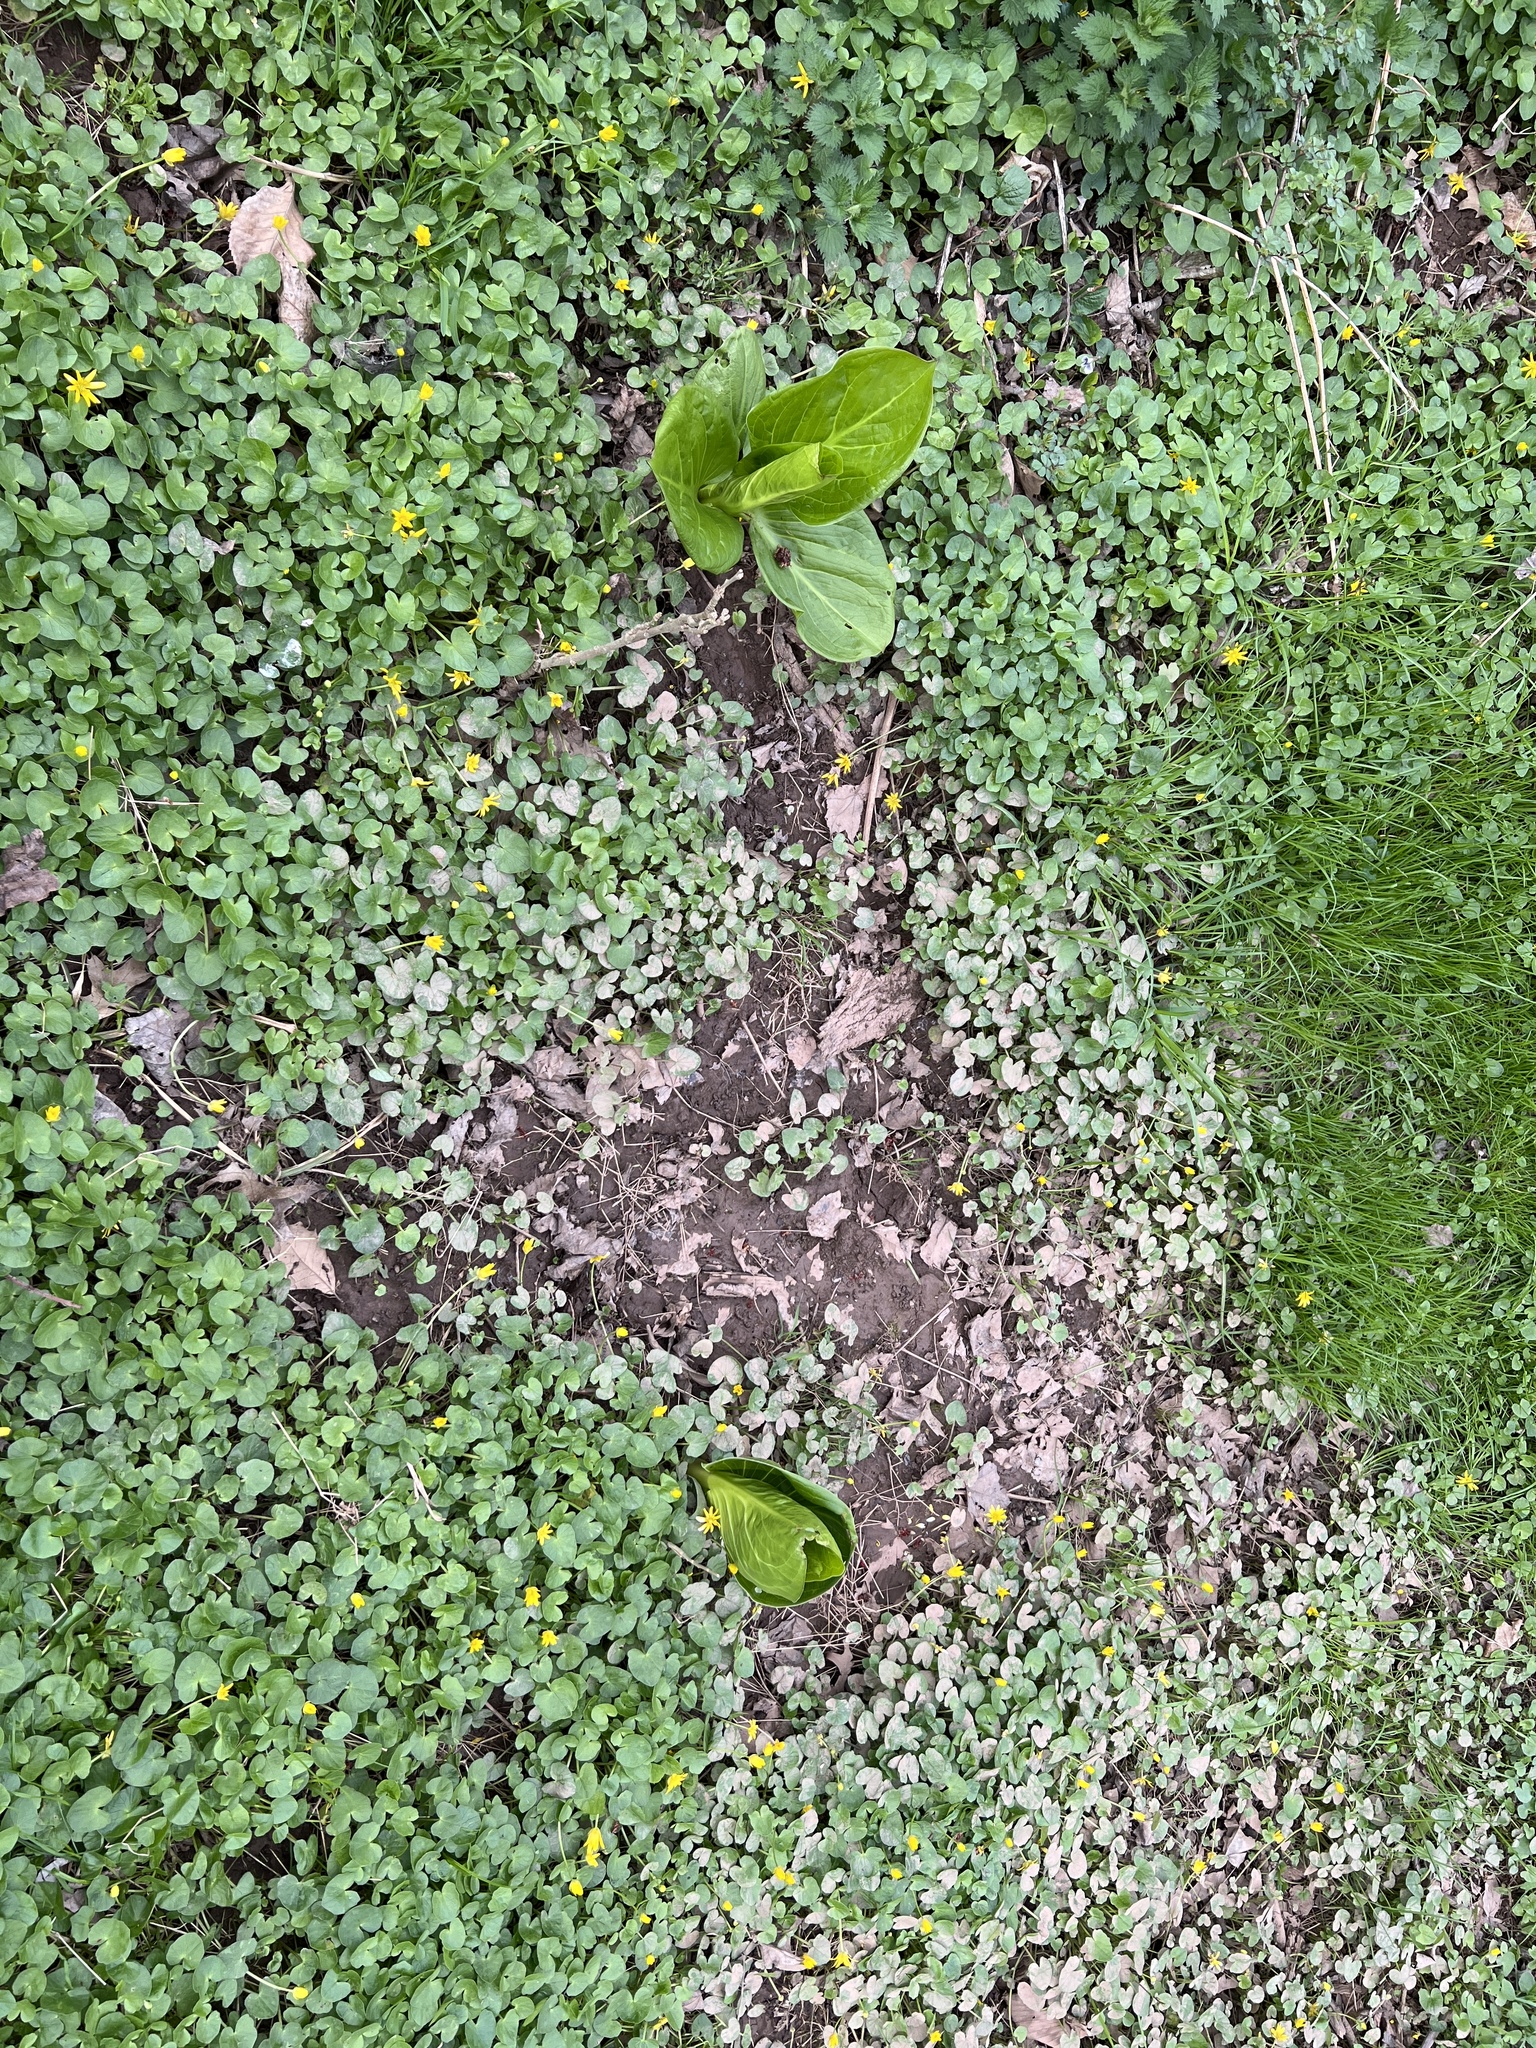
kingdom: Plantae
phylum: Tracheophyta
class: Liliopsida
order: Alismatales
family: Araceae
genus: Symplocarpus
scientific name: Symplocarpus foetidus
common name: Eastern skunk cabbage
